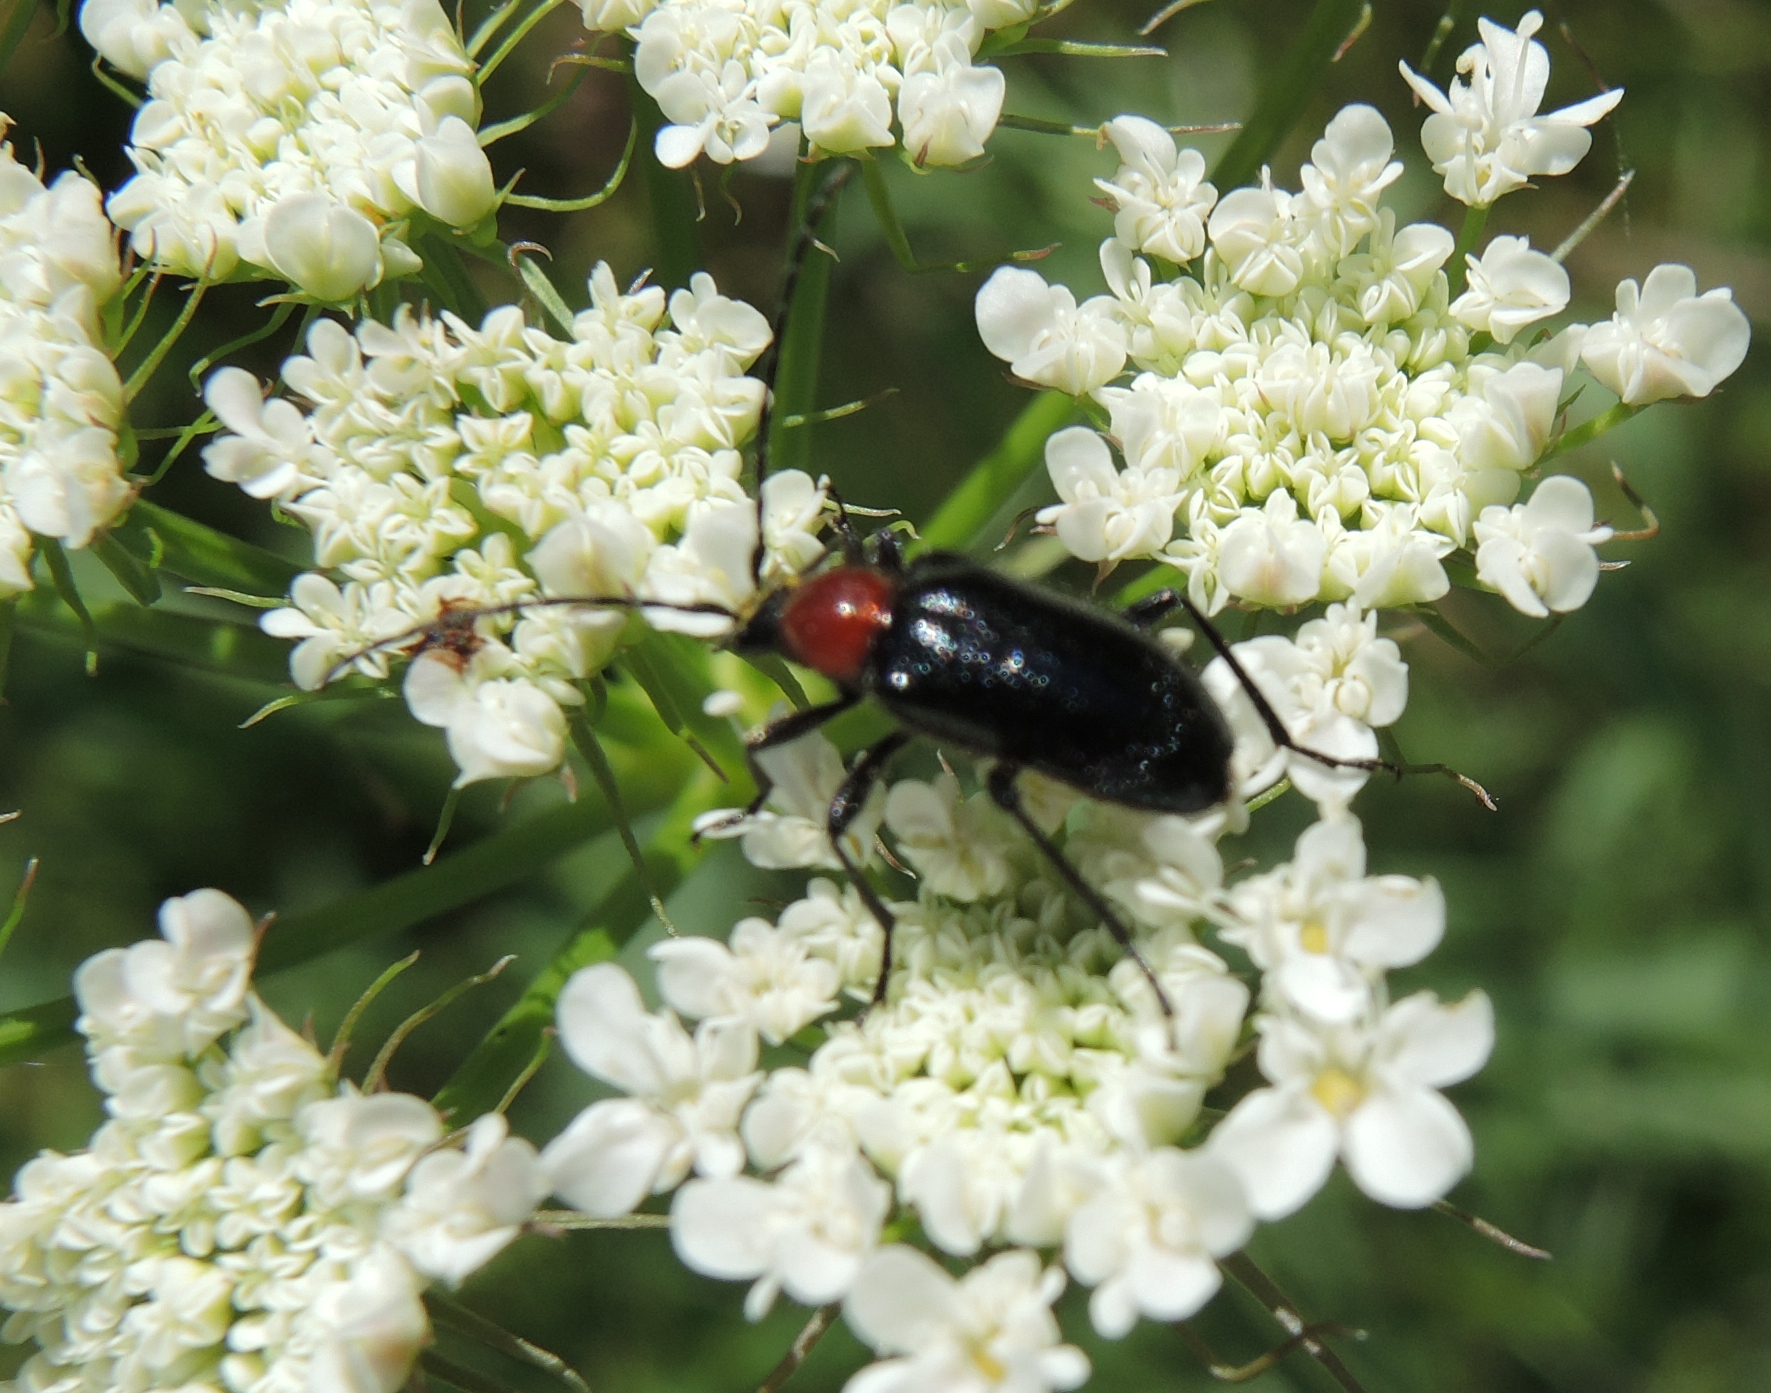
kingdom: Animalia
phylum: Arthropoda
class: Insecta
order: Coleoptera
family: Cerambycidae
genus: Dinoptera
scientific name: Dinoptera collaris
